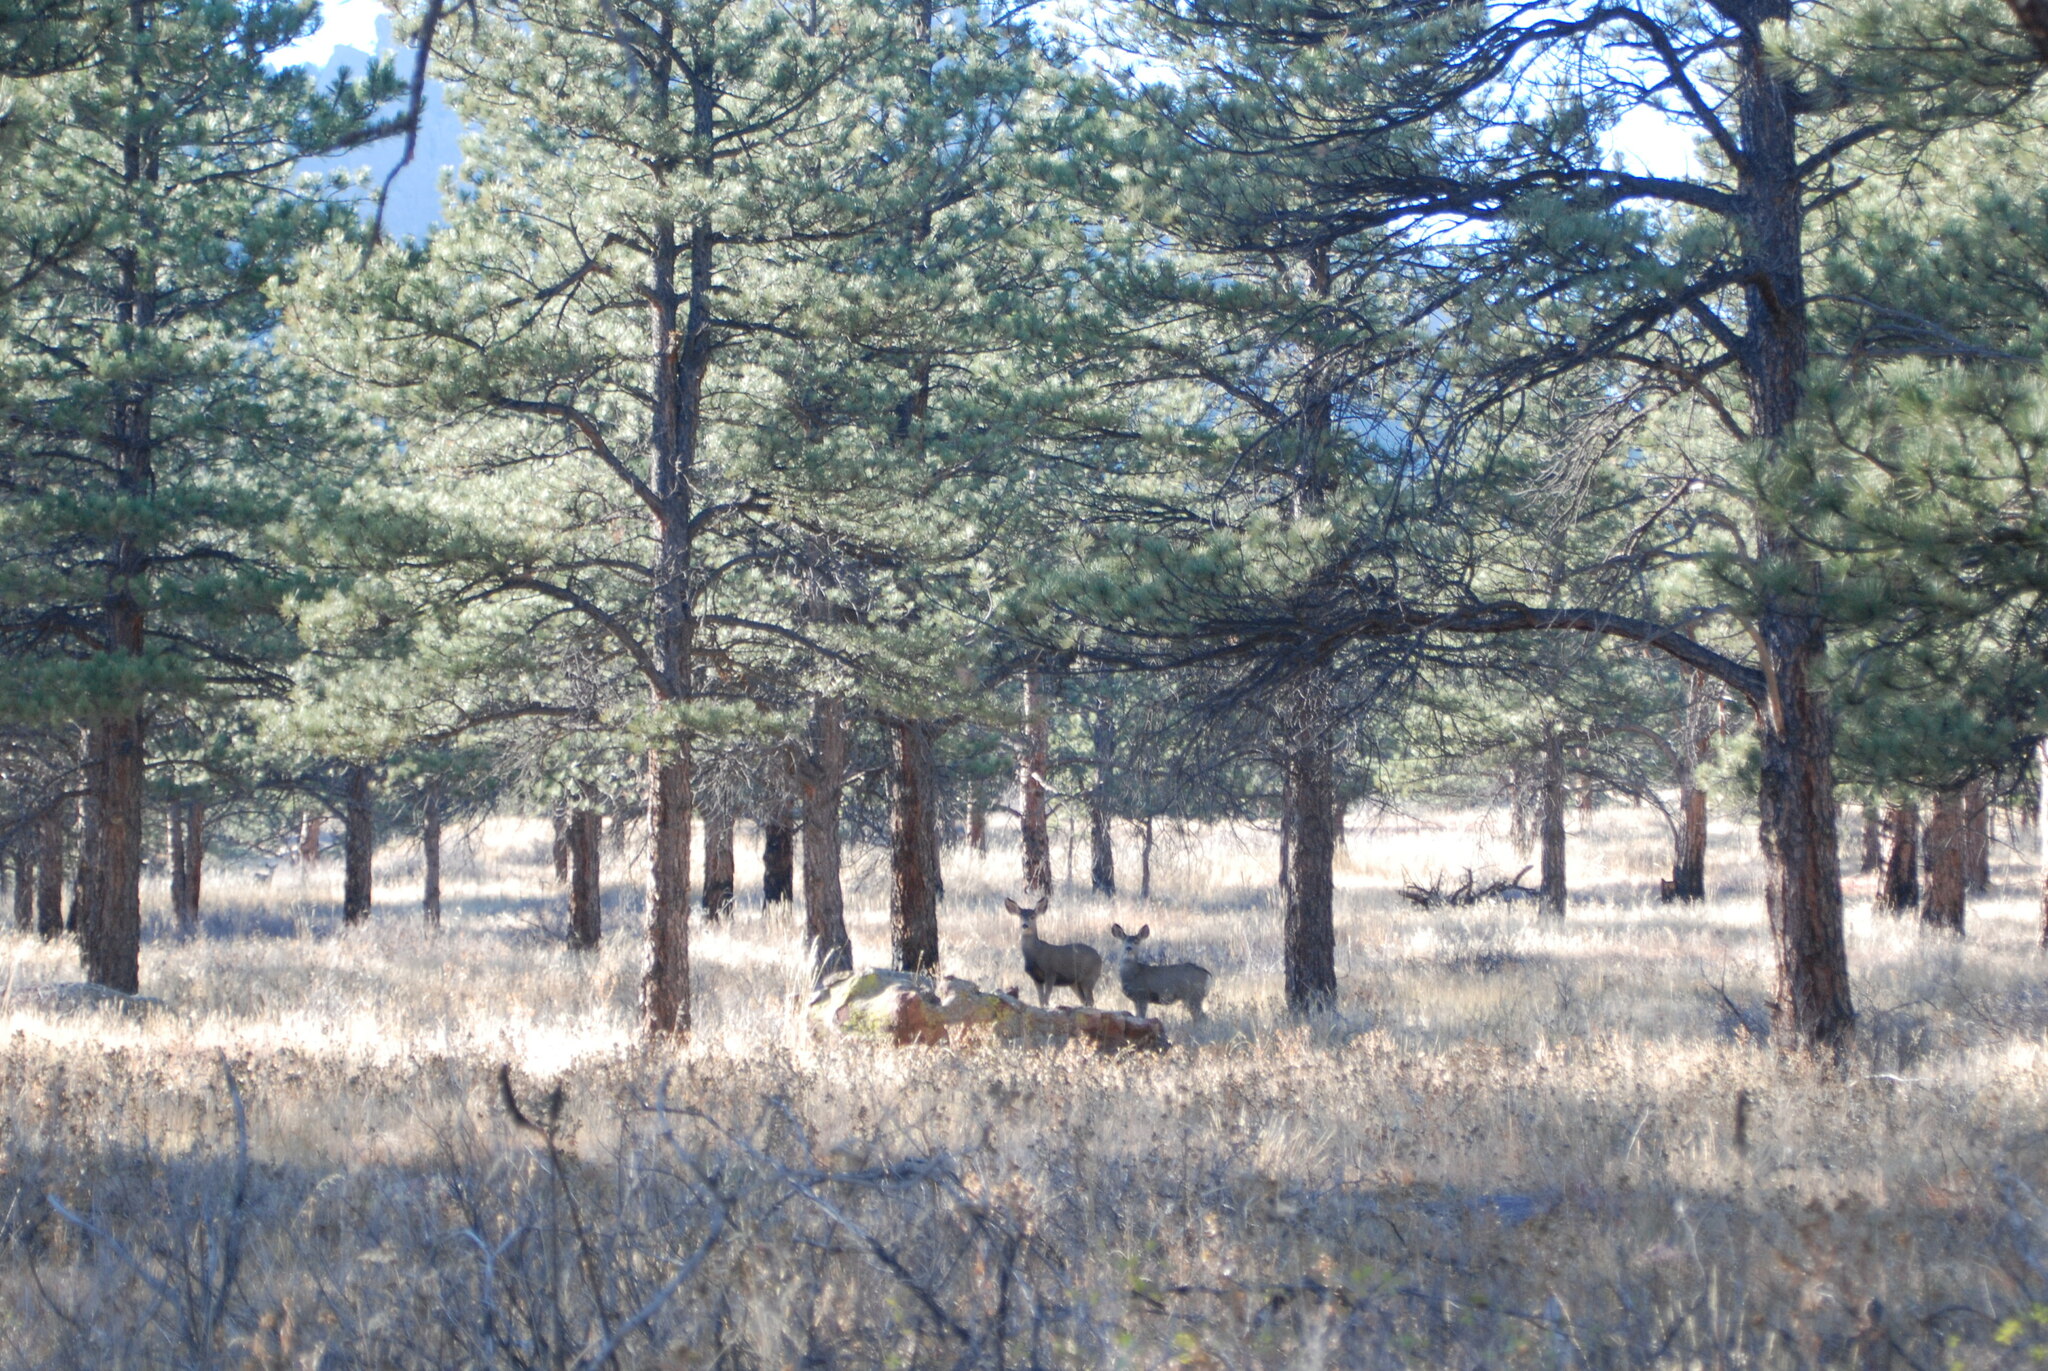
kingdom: Animalia
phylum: Chordata
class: Mammalia
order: Artiodactyla
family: Cervidae
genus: Odocoileus
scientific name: Odocoileus hemionus
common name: Mule deer
